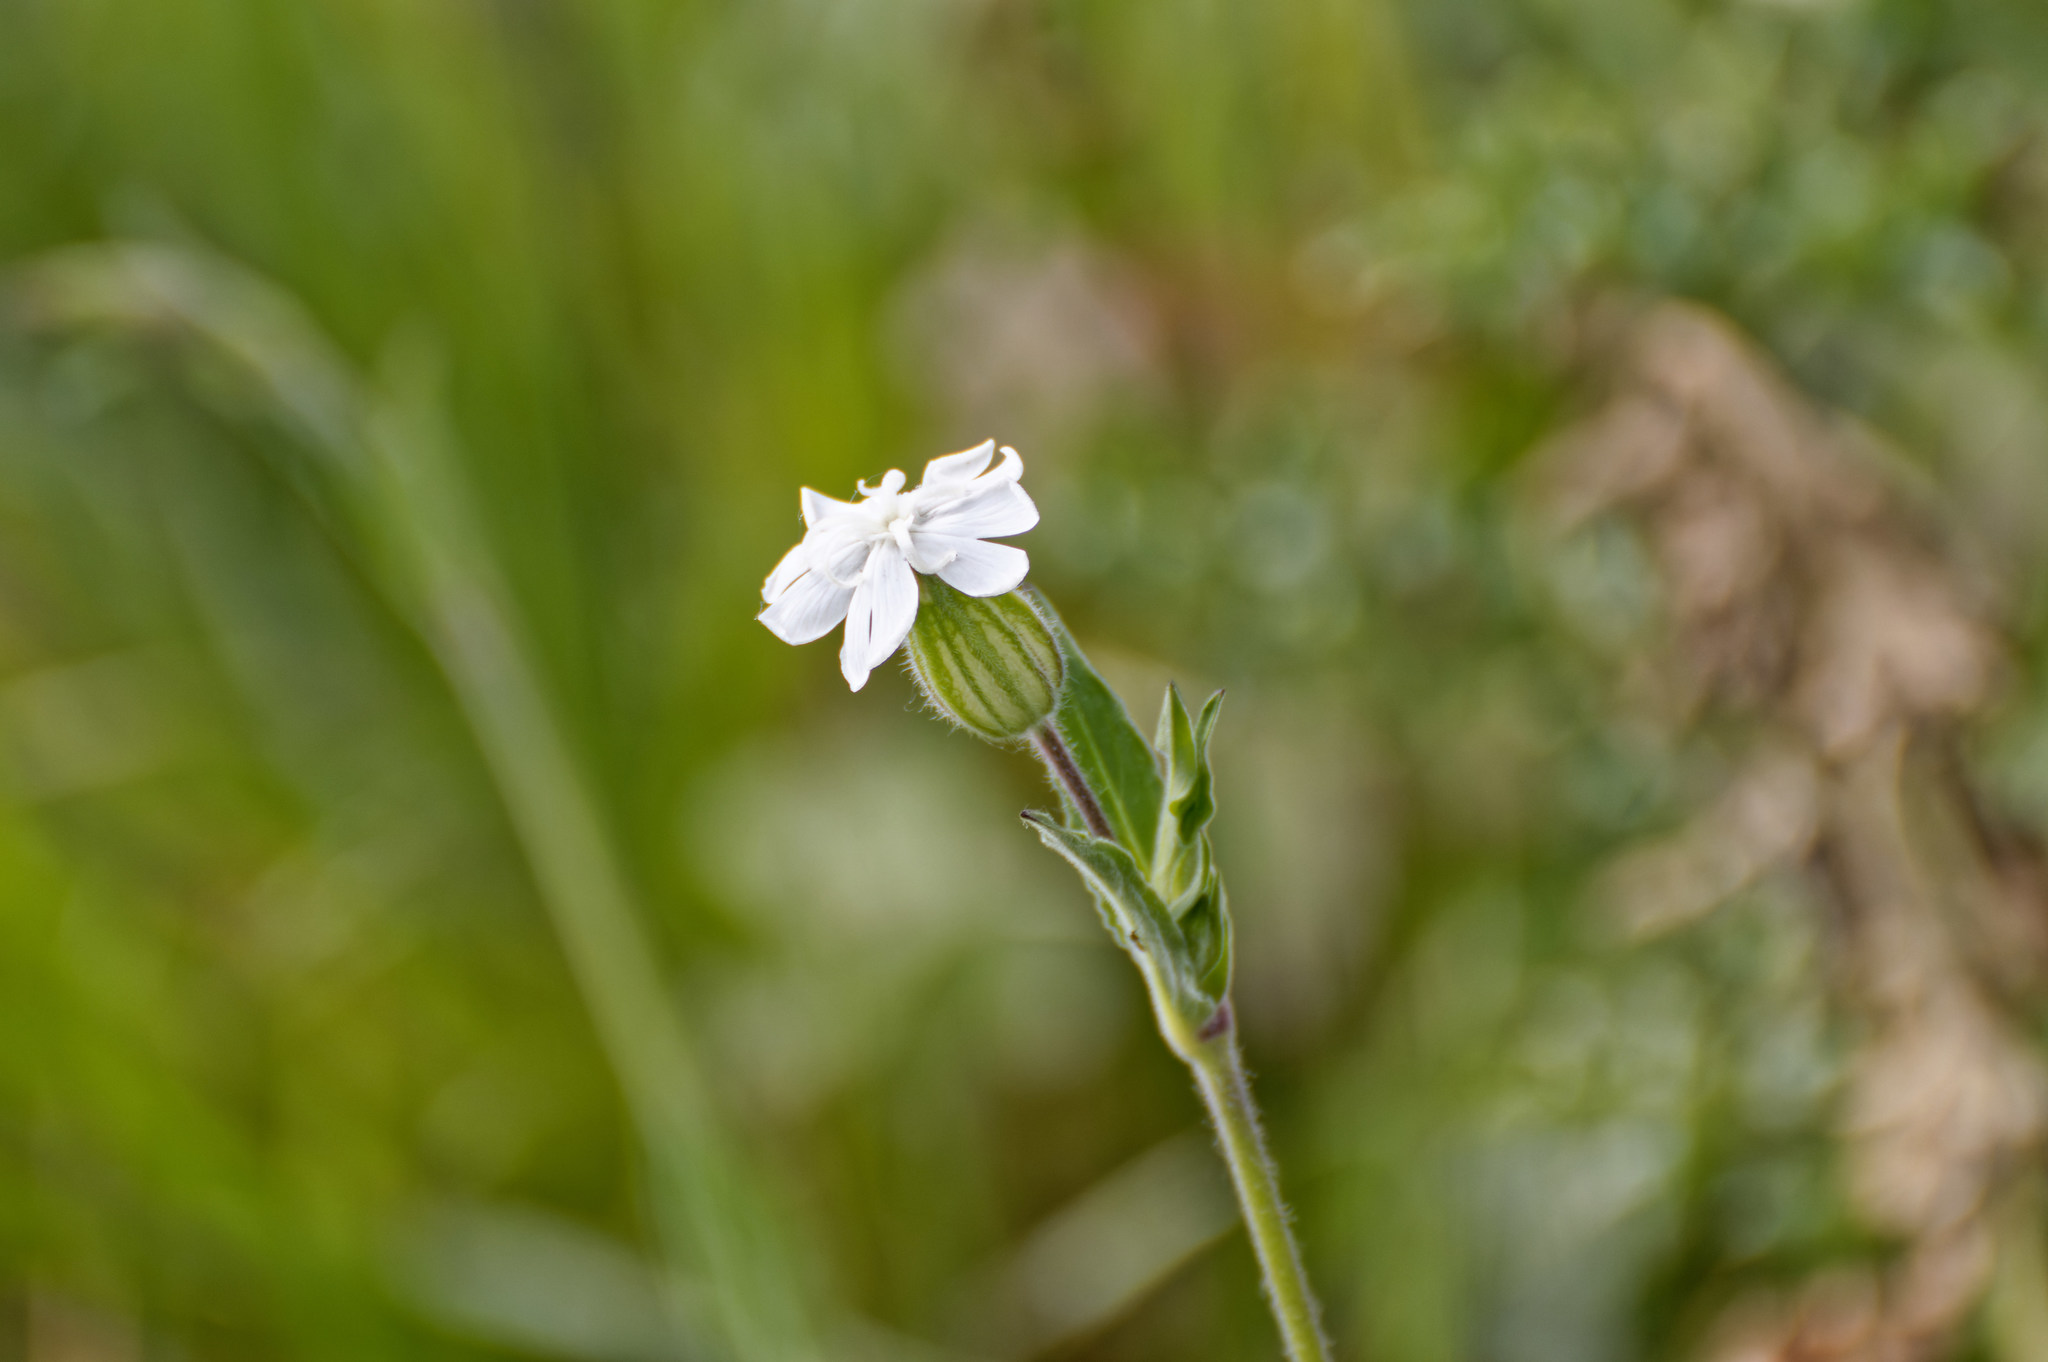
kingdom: Plantae
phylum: Tracheophyta
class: Magnoliopsida
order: Caryophyllales
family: Caryophyllaceae
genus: Silene
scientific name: Silene latifolia
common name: White campion
